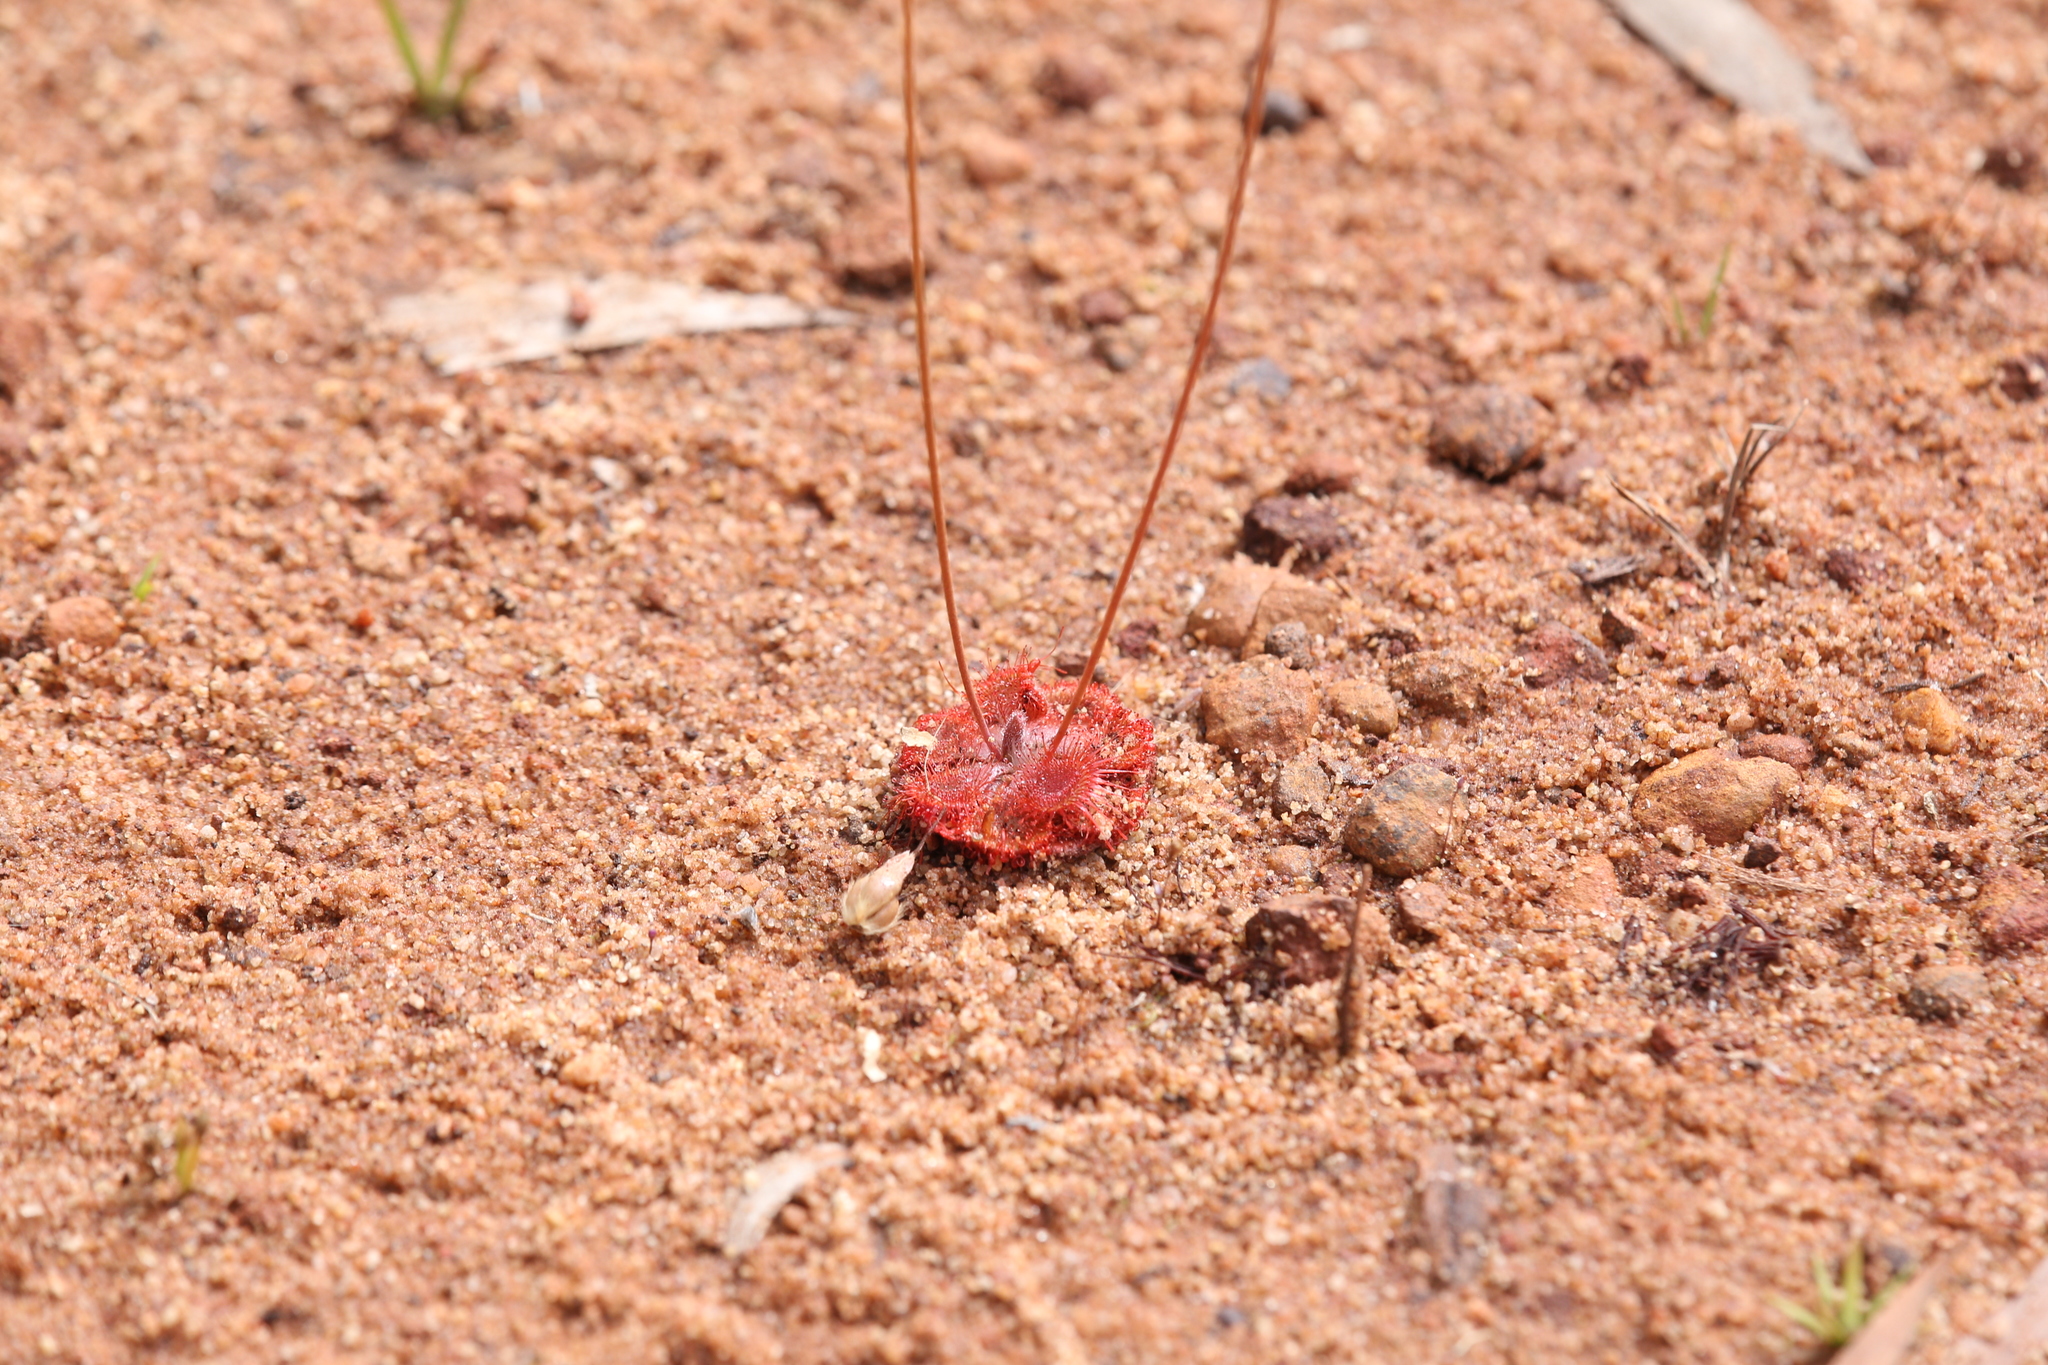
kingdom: Plantae
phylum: Tracheophyta
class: Magnoliopsida
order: Caryophyllales
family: Droseraceae
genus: Drosera
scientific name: Drosera spatulata
